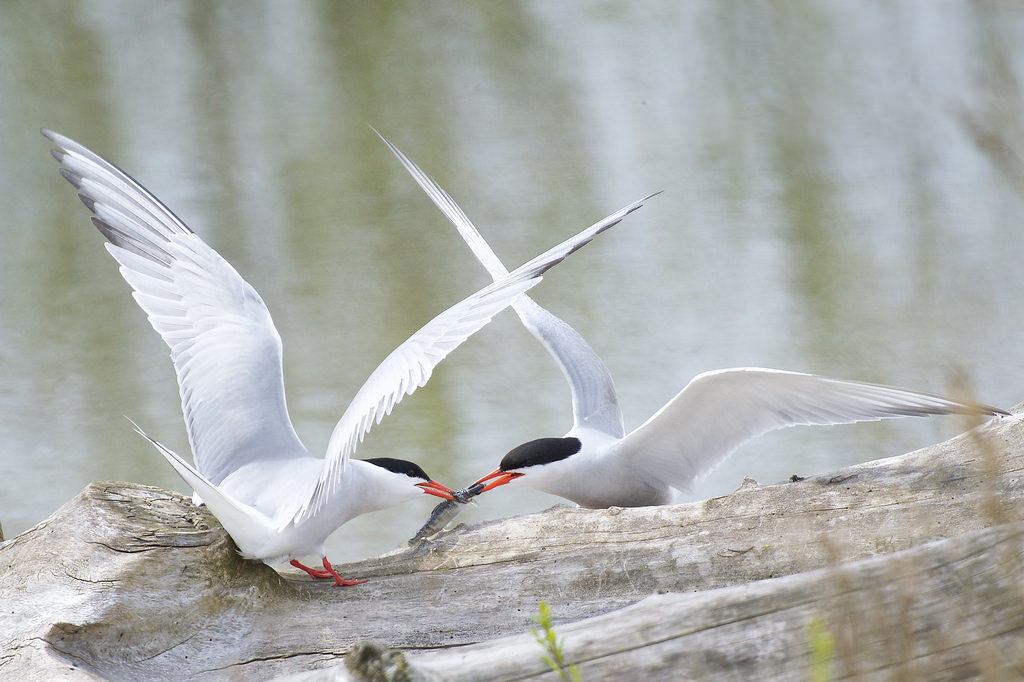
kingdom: Animalia
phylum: Chordata
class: Aves
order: Charadriiformes
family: Laridae
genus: Sterna
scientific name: Sterna hirundo
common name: Common tern
